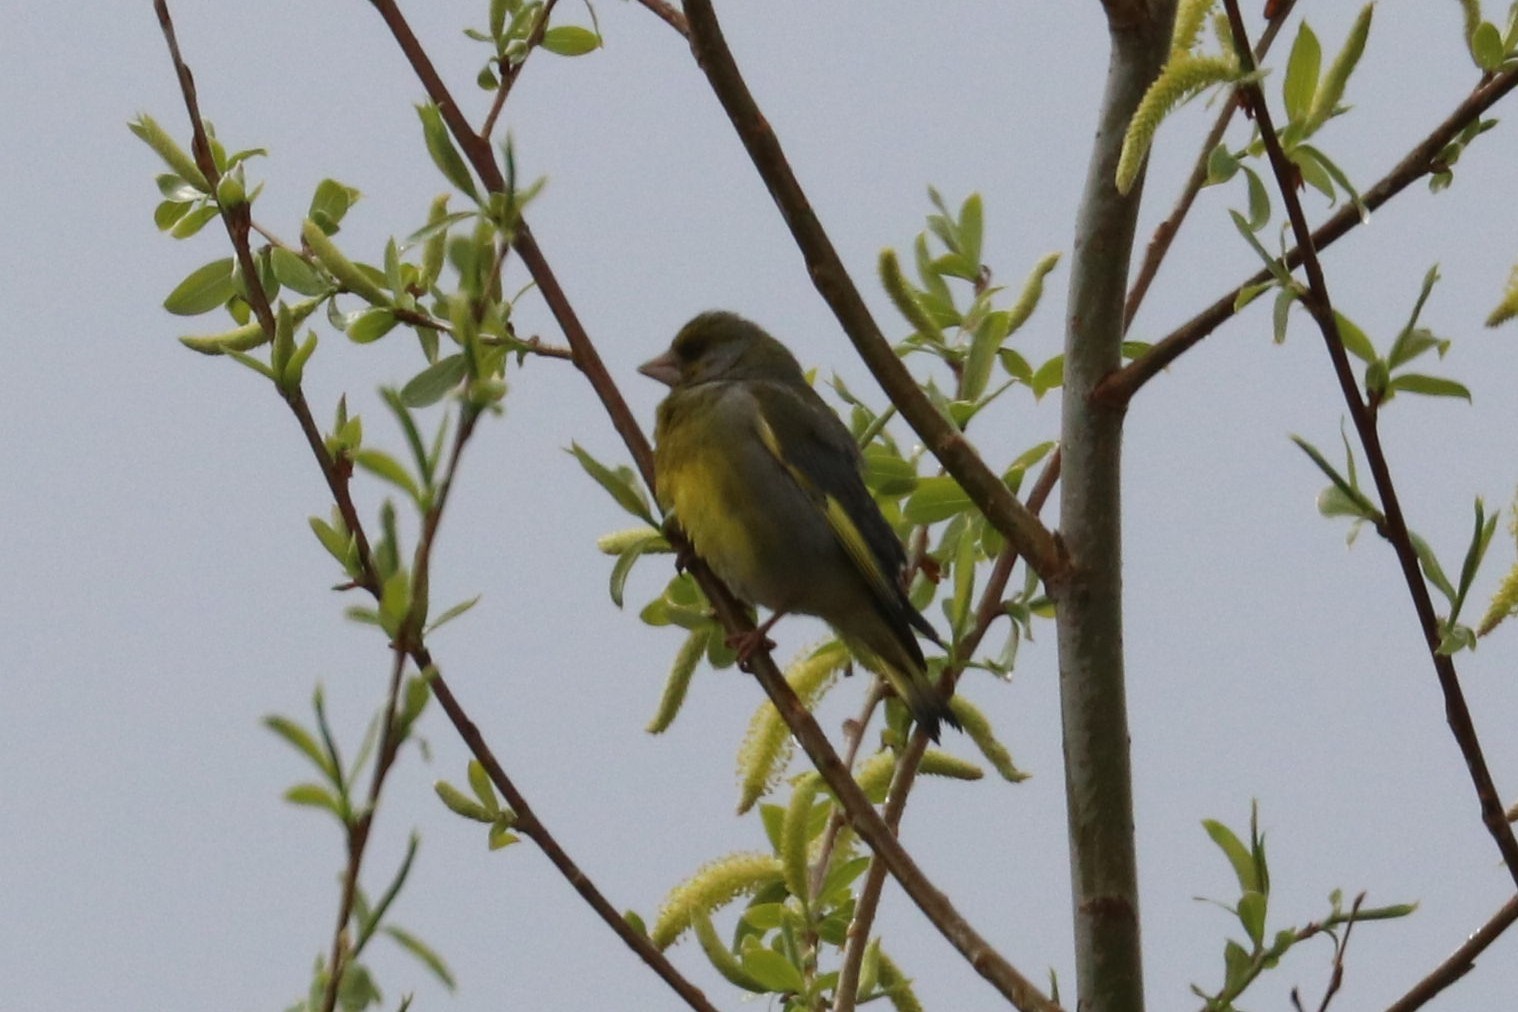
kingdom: Plantae
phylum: Tracheophyta
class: Liliopsida
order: Poales
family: Poaceae
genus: Chloris
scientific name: Chloris chloris
